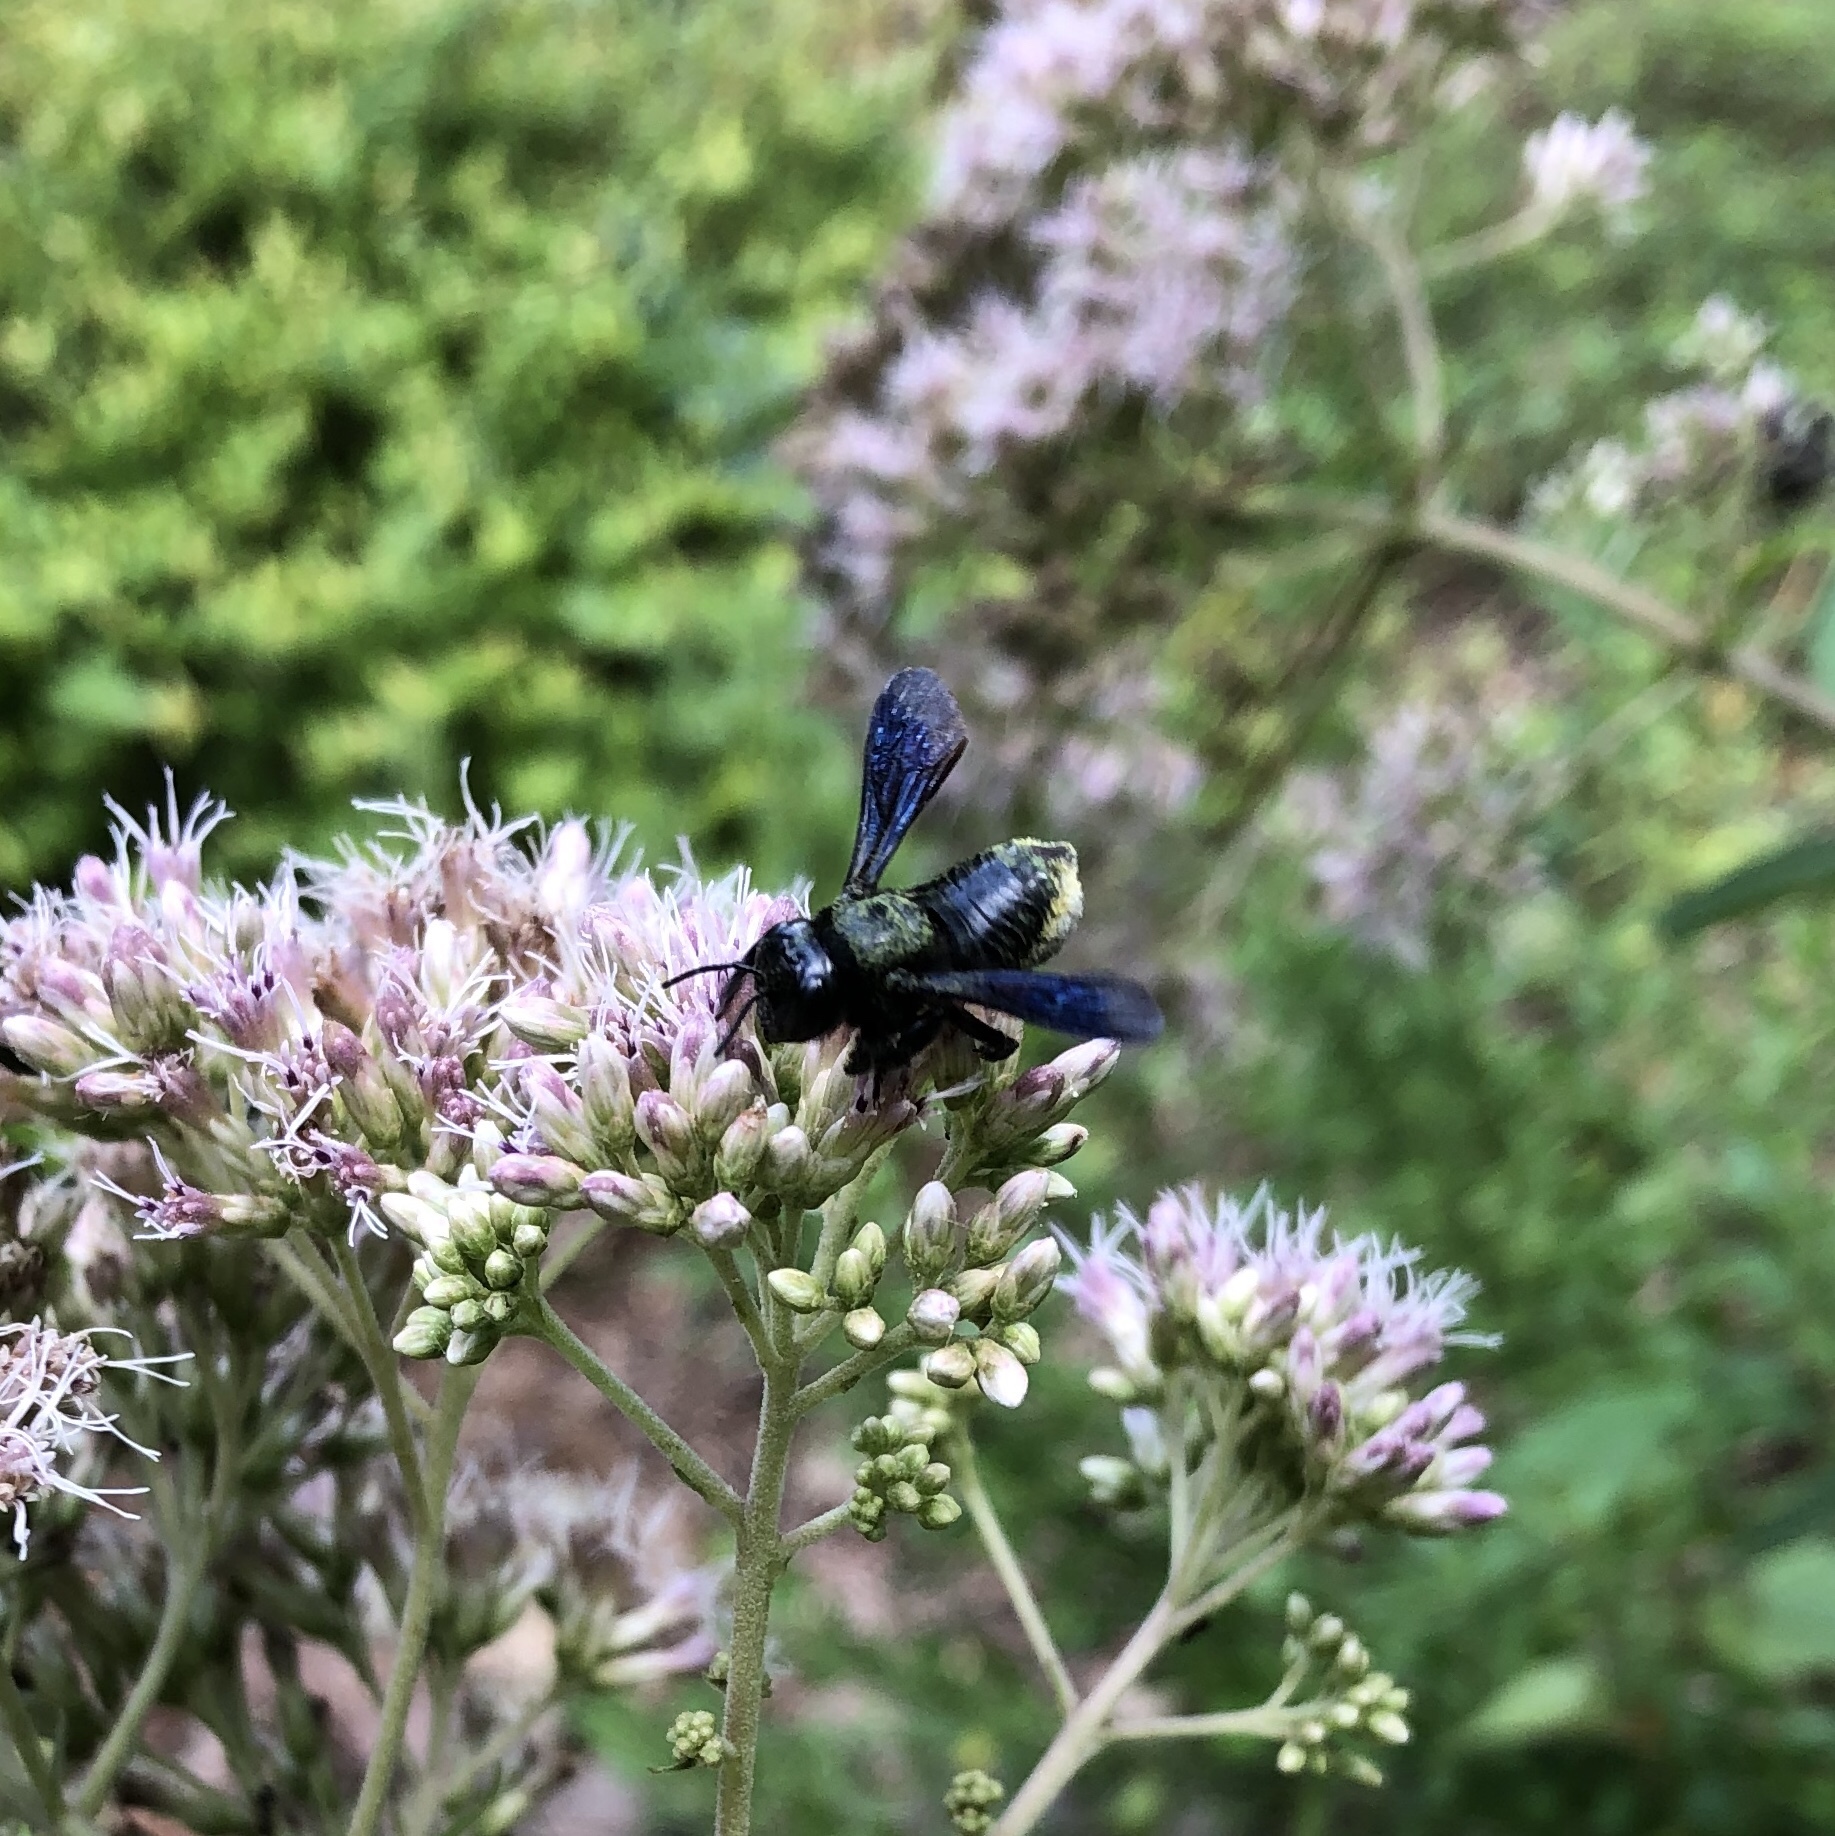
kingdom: Animalia
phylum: Arthropoda
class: Insecta
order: Hymenoptera
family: Megachilidae
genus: Megachile
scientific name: Megachile xylocopoides
